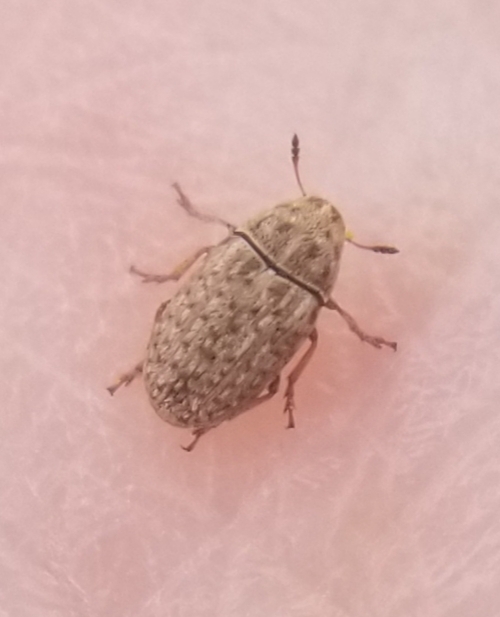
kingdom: Animalia
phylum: Arthropoda
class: Insecta
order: Coleoptera
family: Anthribidae
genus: Trigonorhinus
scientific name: Trigonorhinus limbatus
